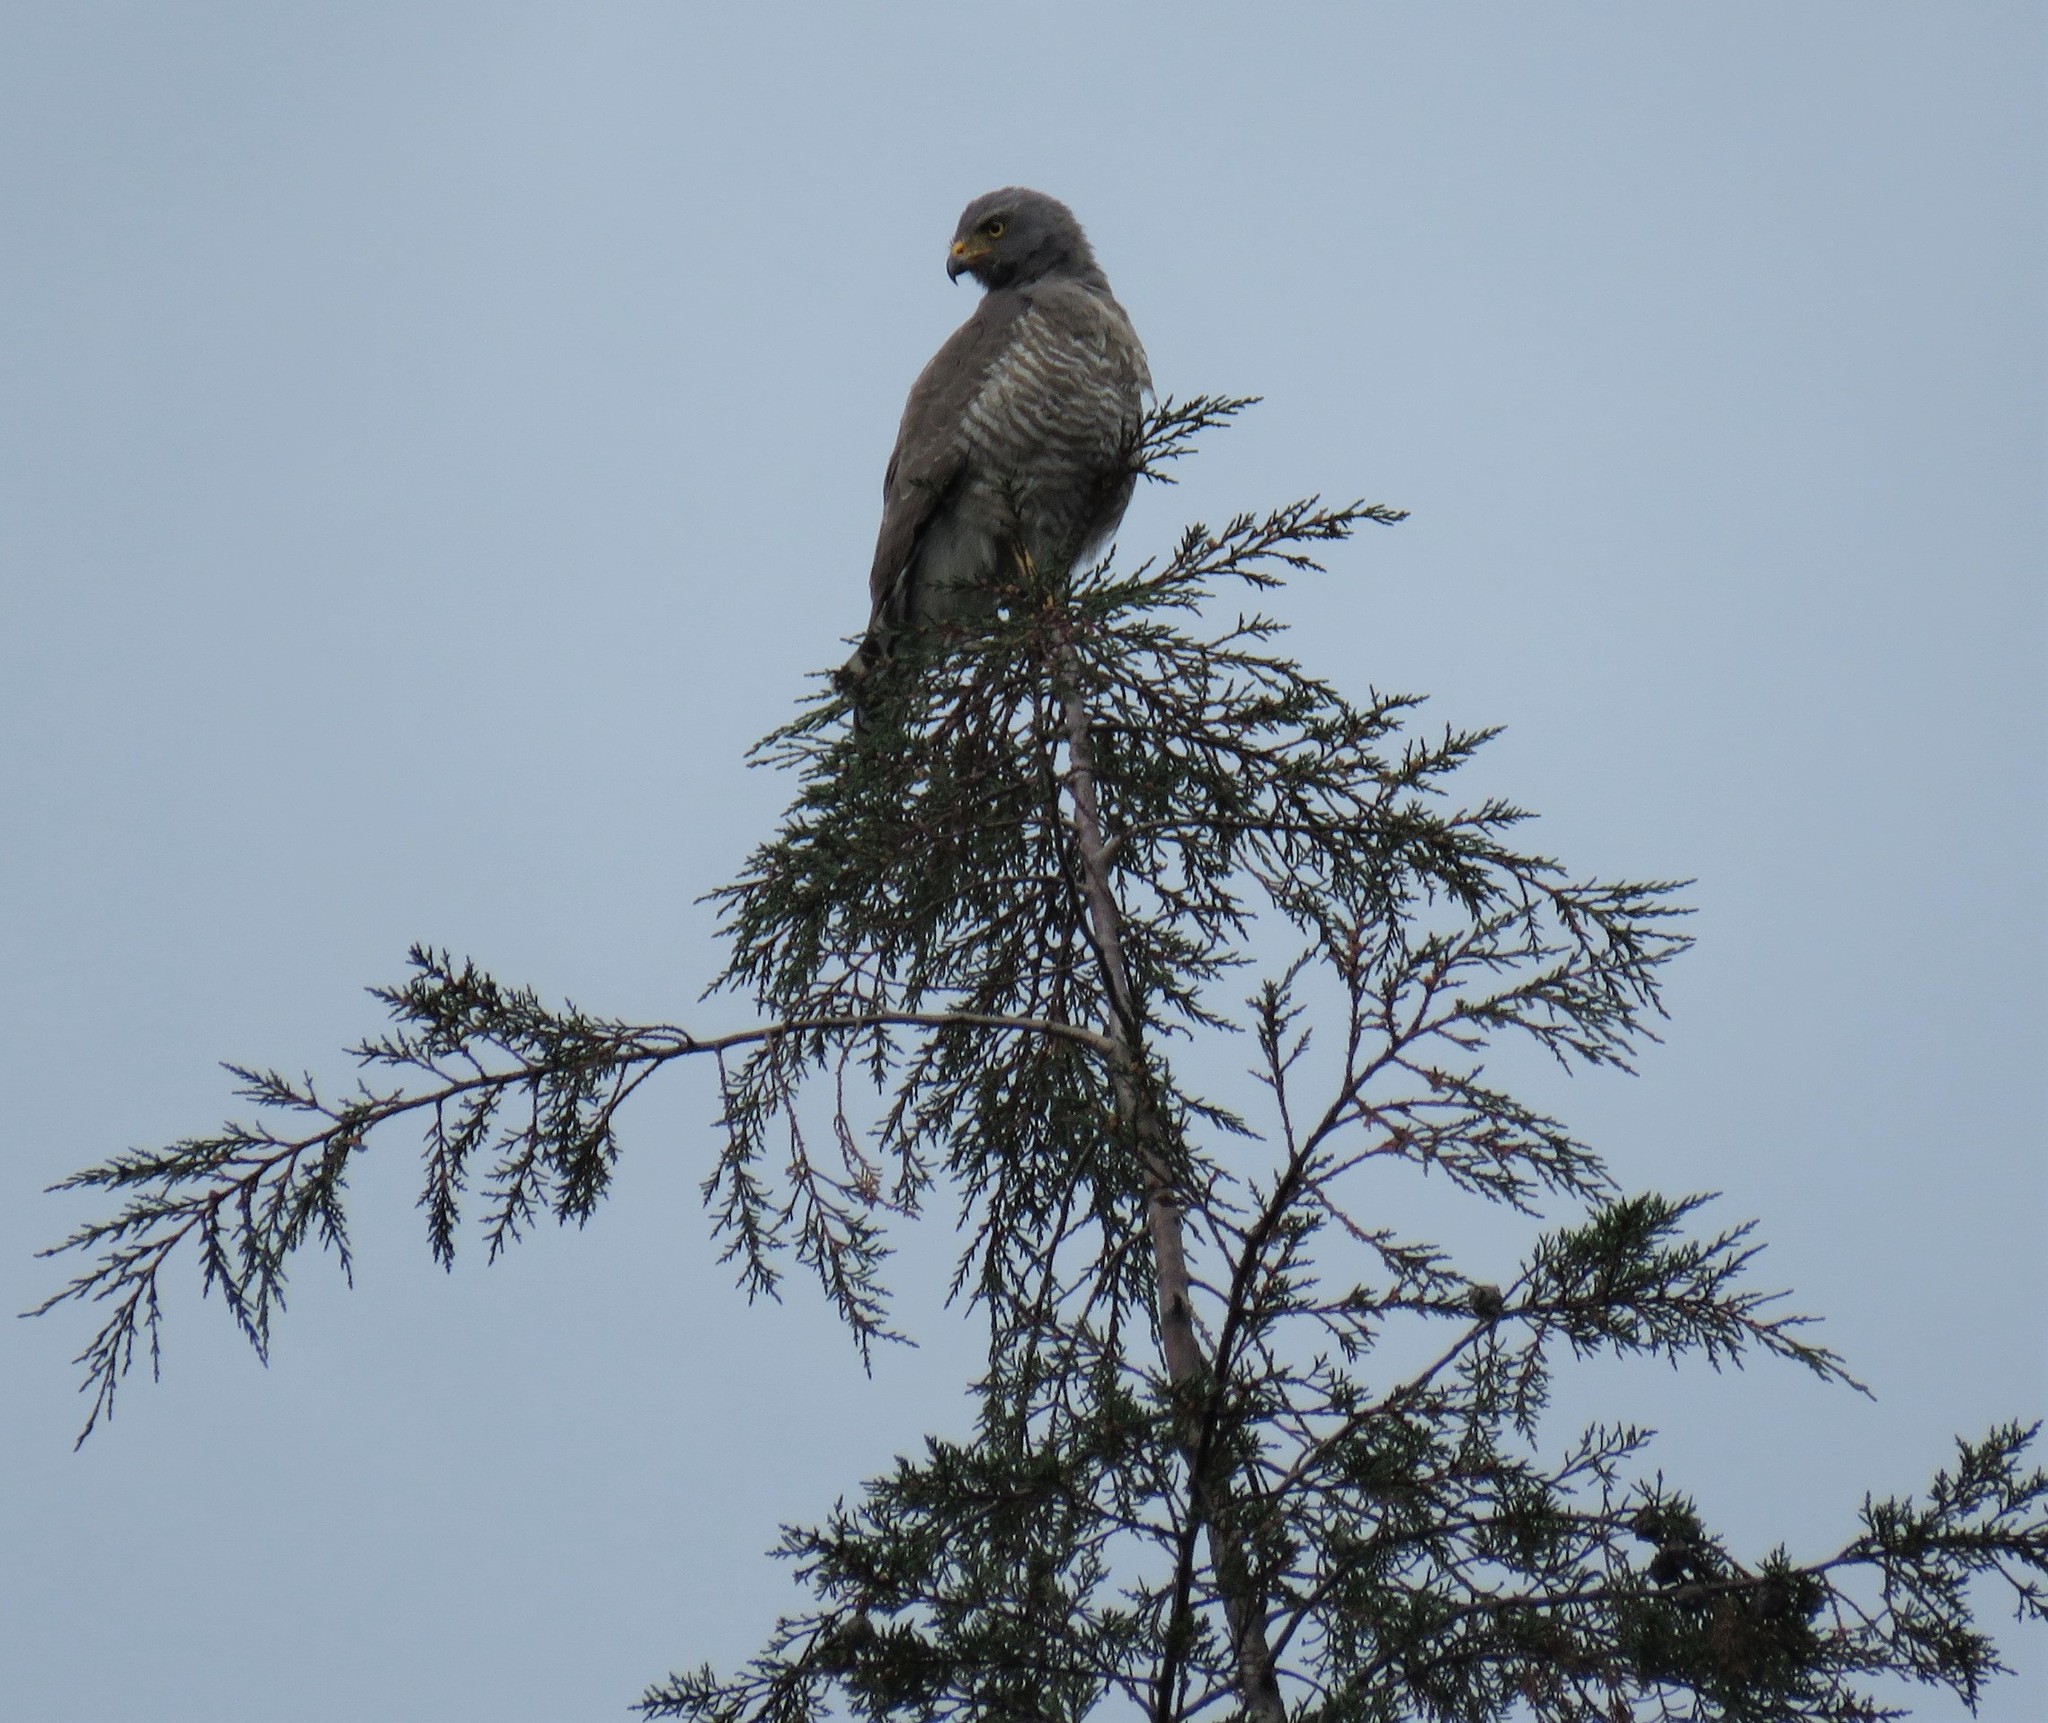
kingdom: Animalia
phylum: Chordata
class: Aves
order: Accipitriformes
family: Accipitridae
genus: Rupornis
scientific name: Rupornis magnirostris
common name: Roadside hawk
